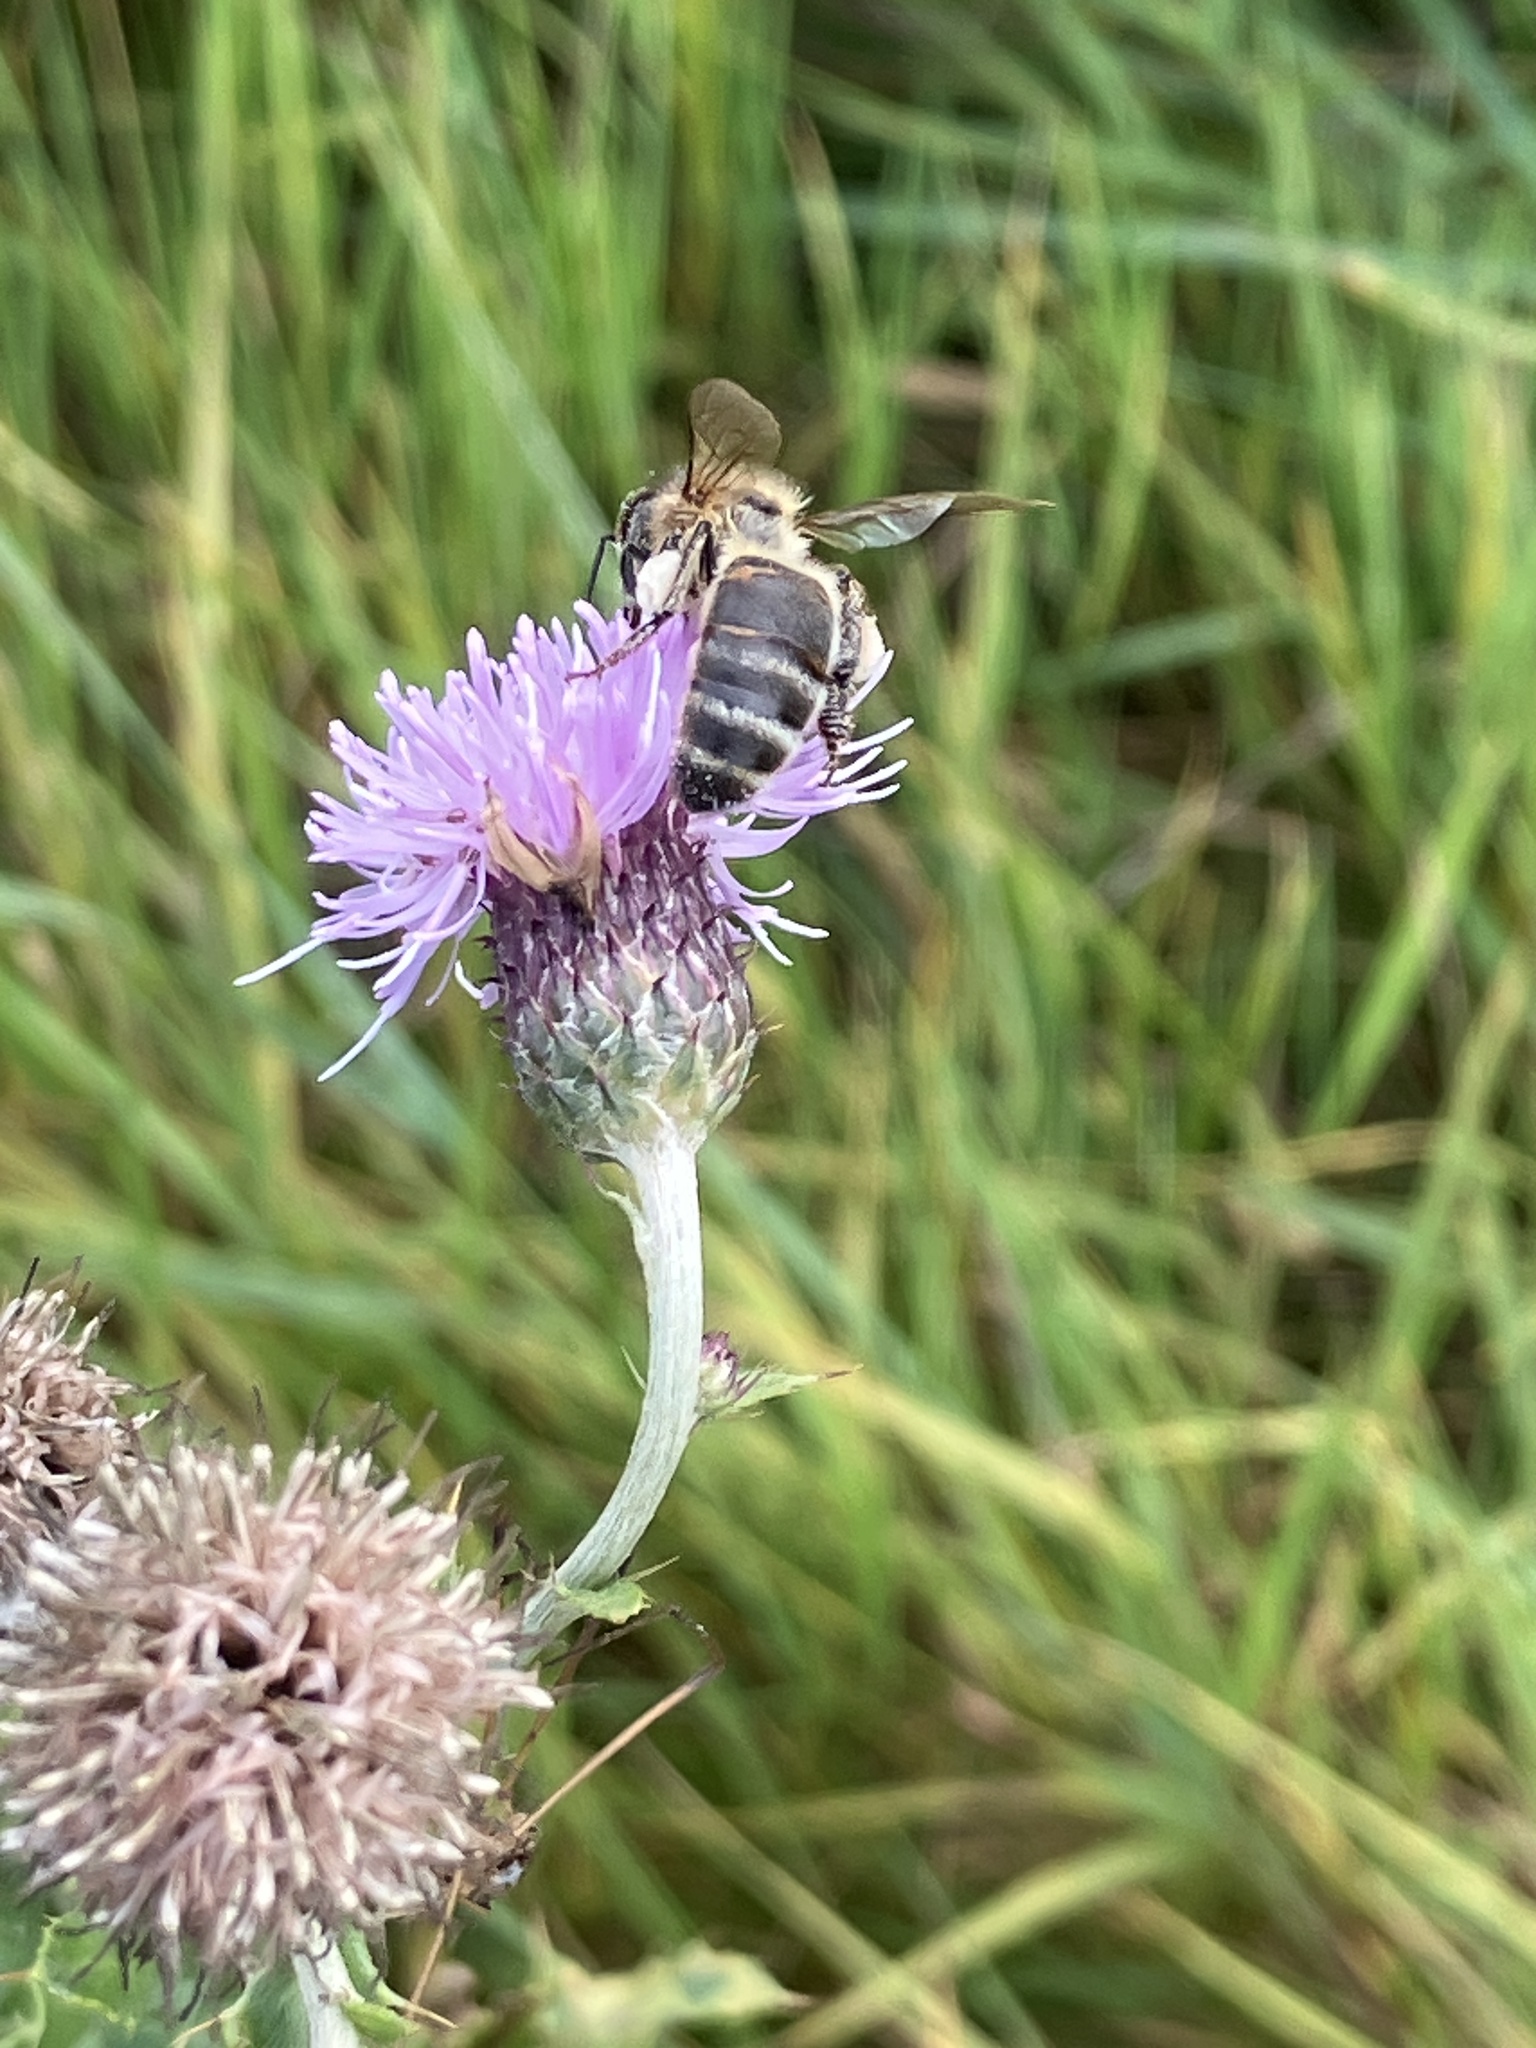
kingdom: Animalia
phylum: Arthropoda
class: Insecta
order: Hymenoptera
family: Apidae
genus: Apis
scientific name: Apis mellifera
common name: Honey bee
